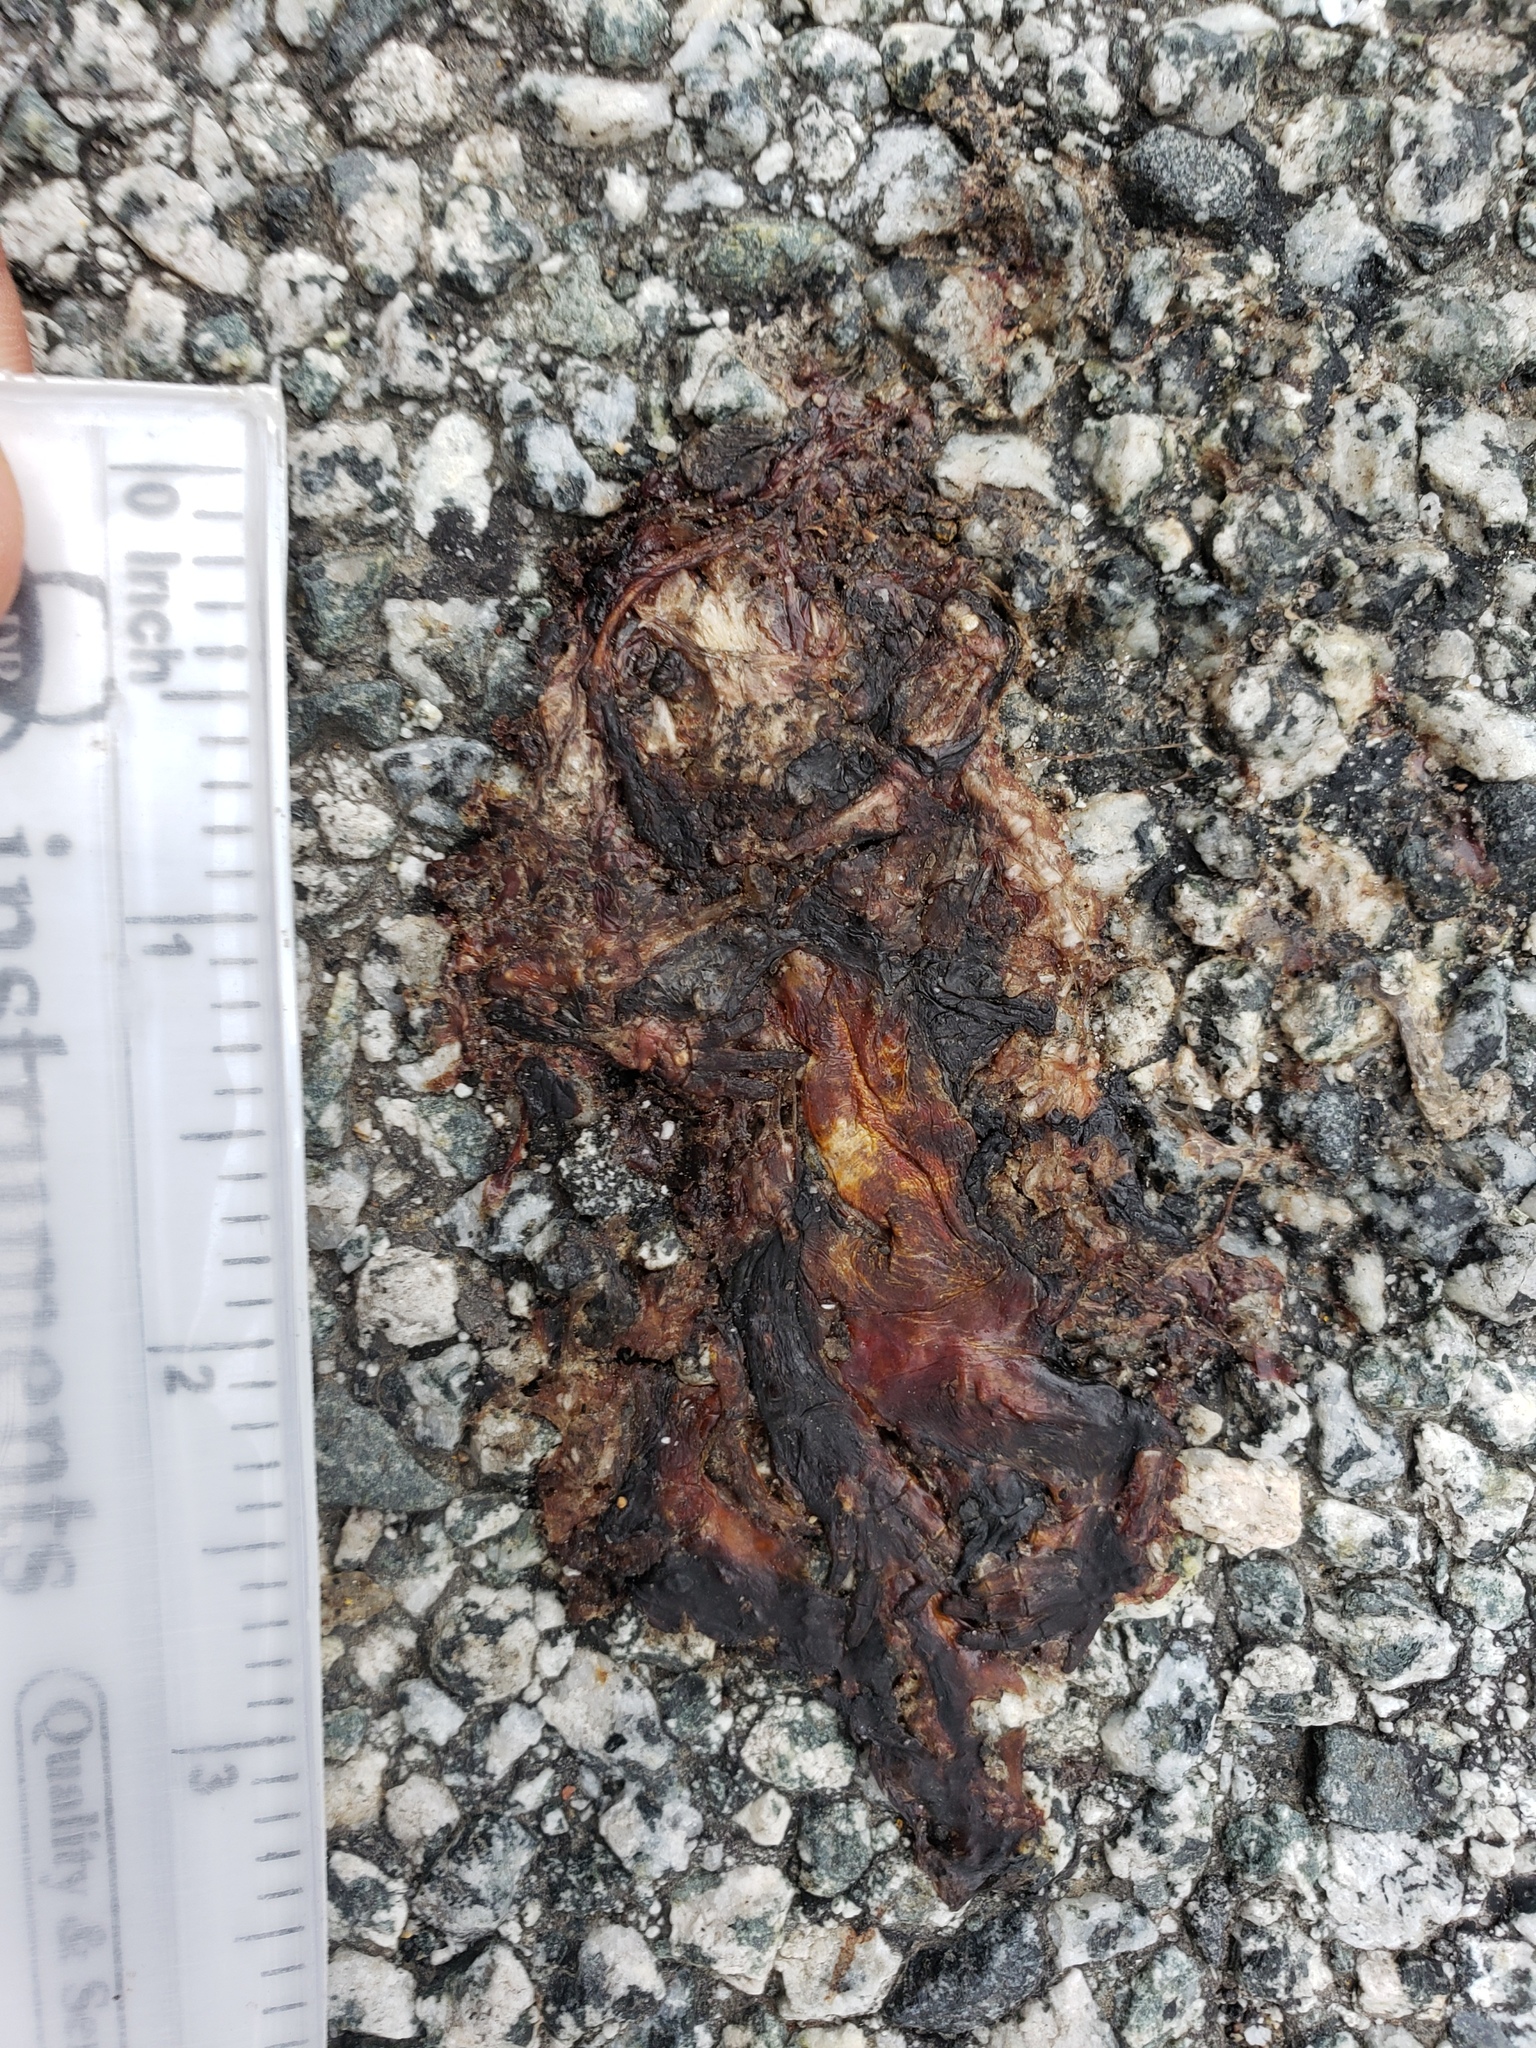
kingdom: Animalia
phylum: Chordata
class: Amphibia
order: Caudata
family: Salamandridae
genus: Taricha
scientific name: Taricha
